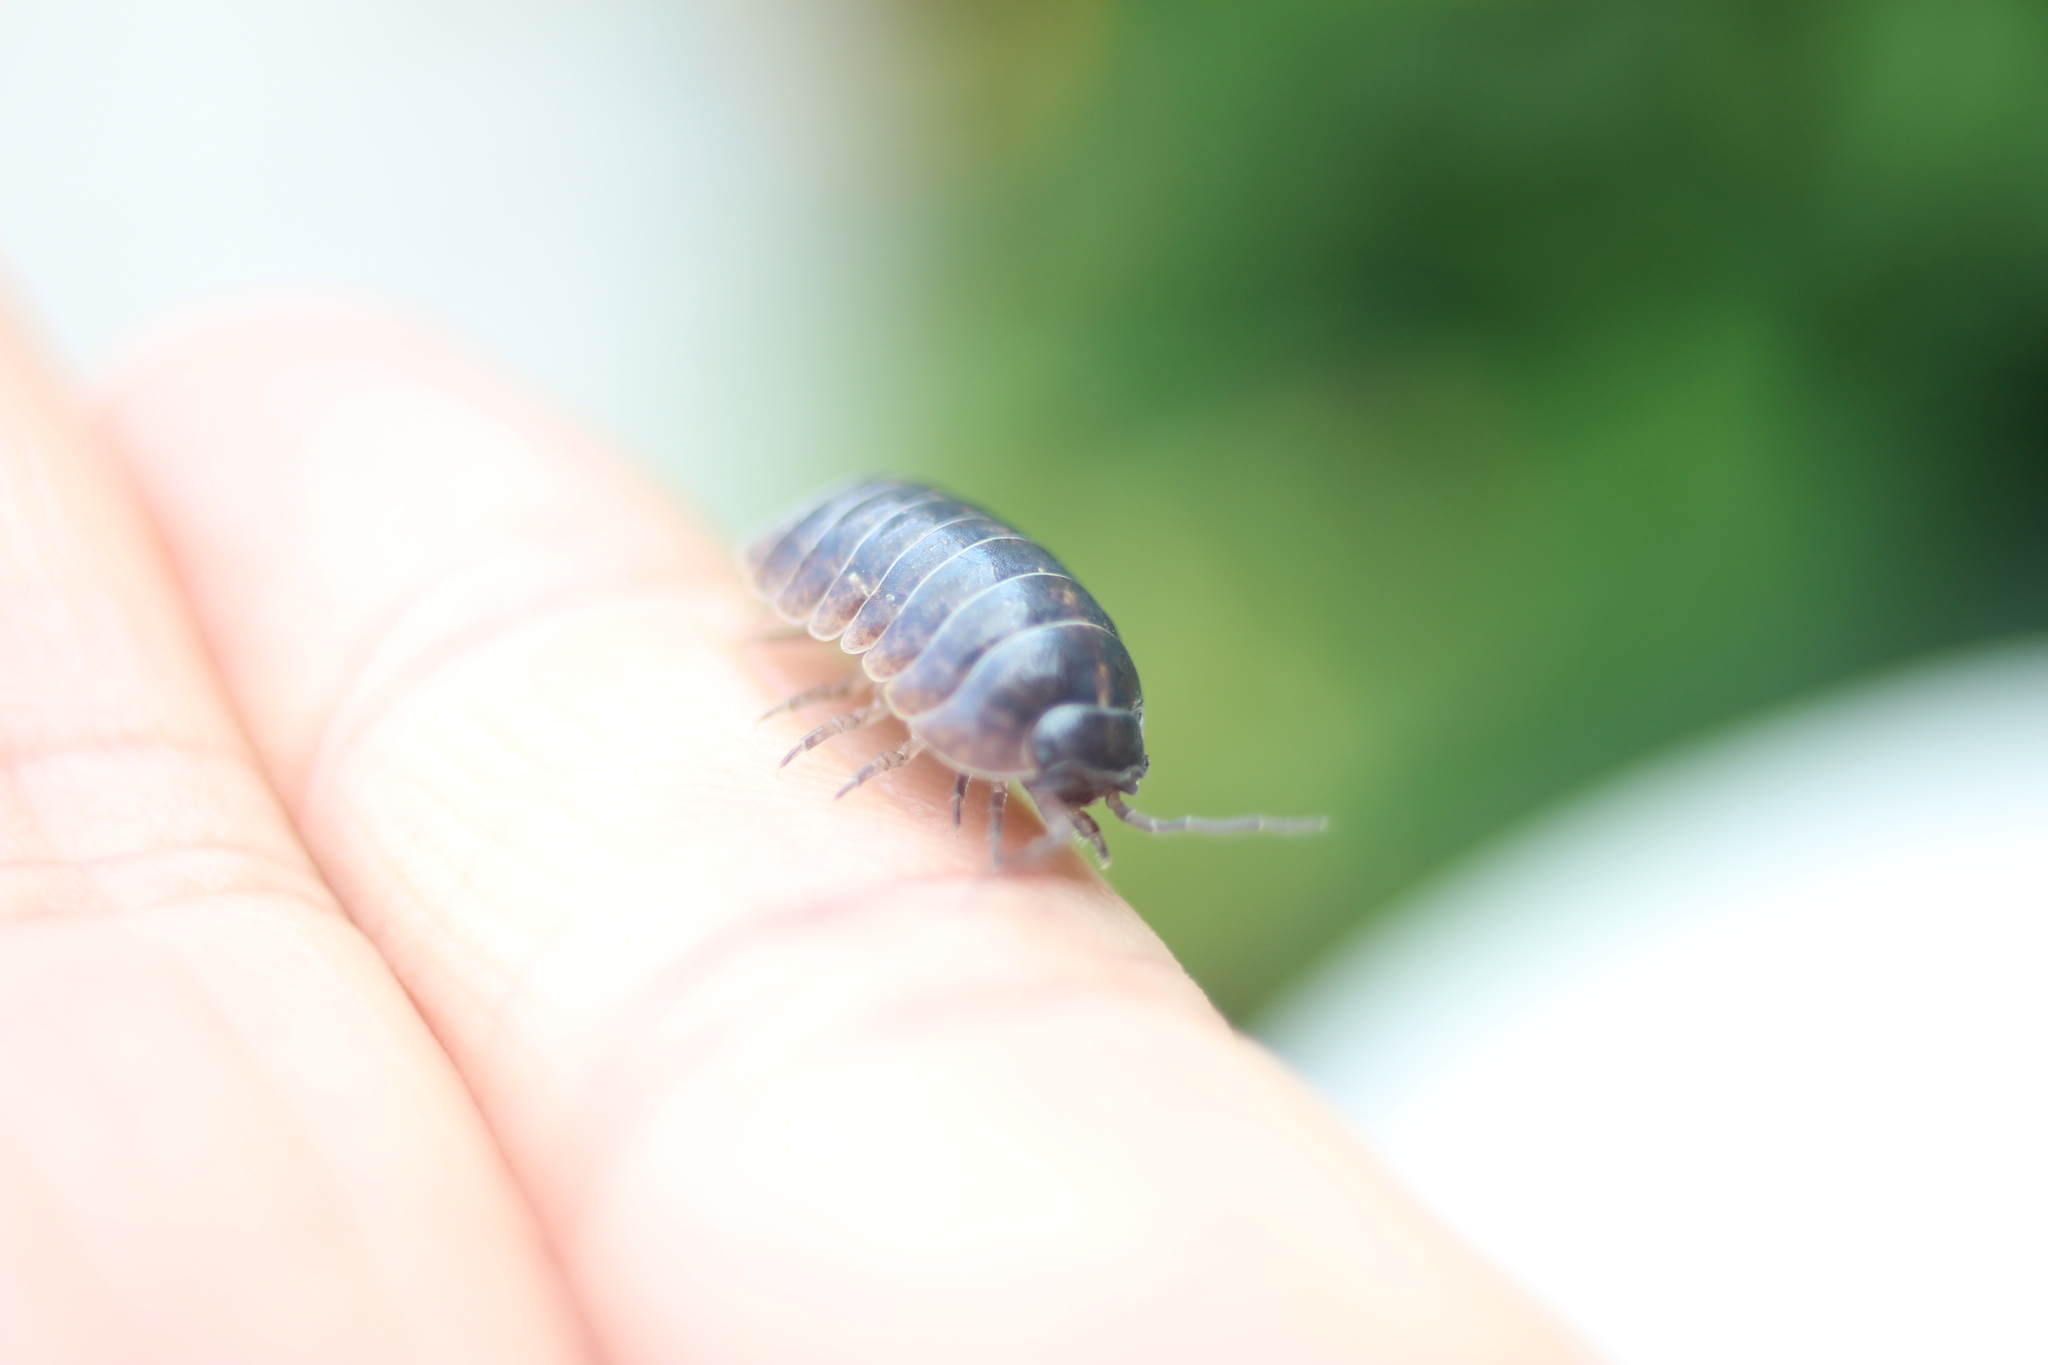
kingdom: Animalia
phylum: Arthropoda
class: Malacostraca
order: Isopoda
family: Armadillidiidae
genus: Armadillidium
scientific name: Armadillidium vulgare
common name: Common pill woodlouse
